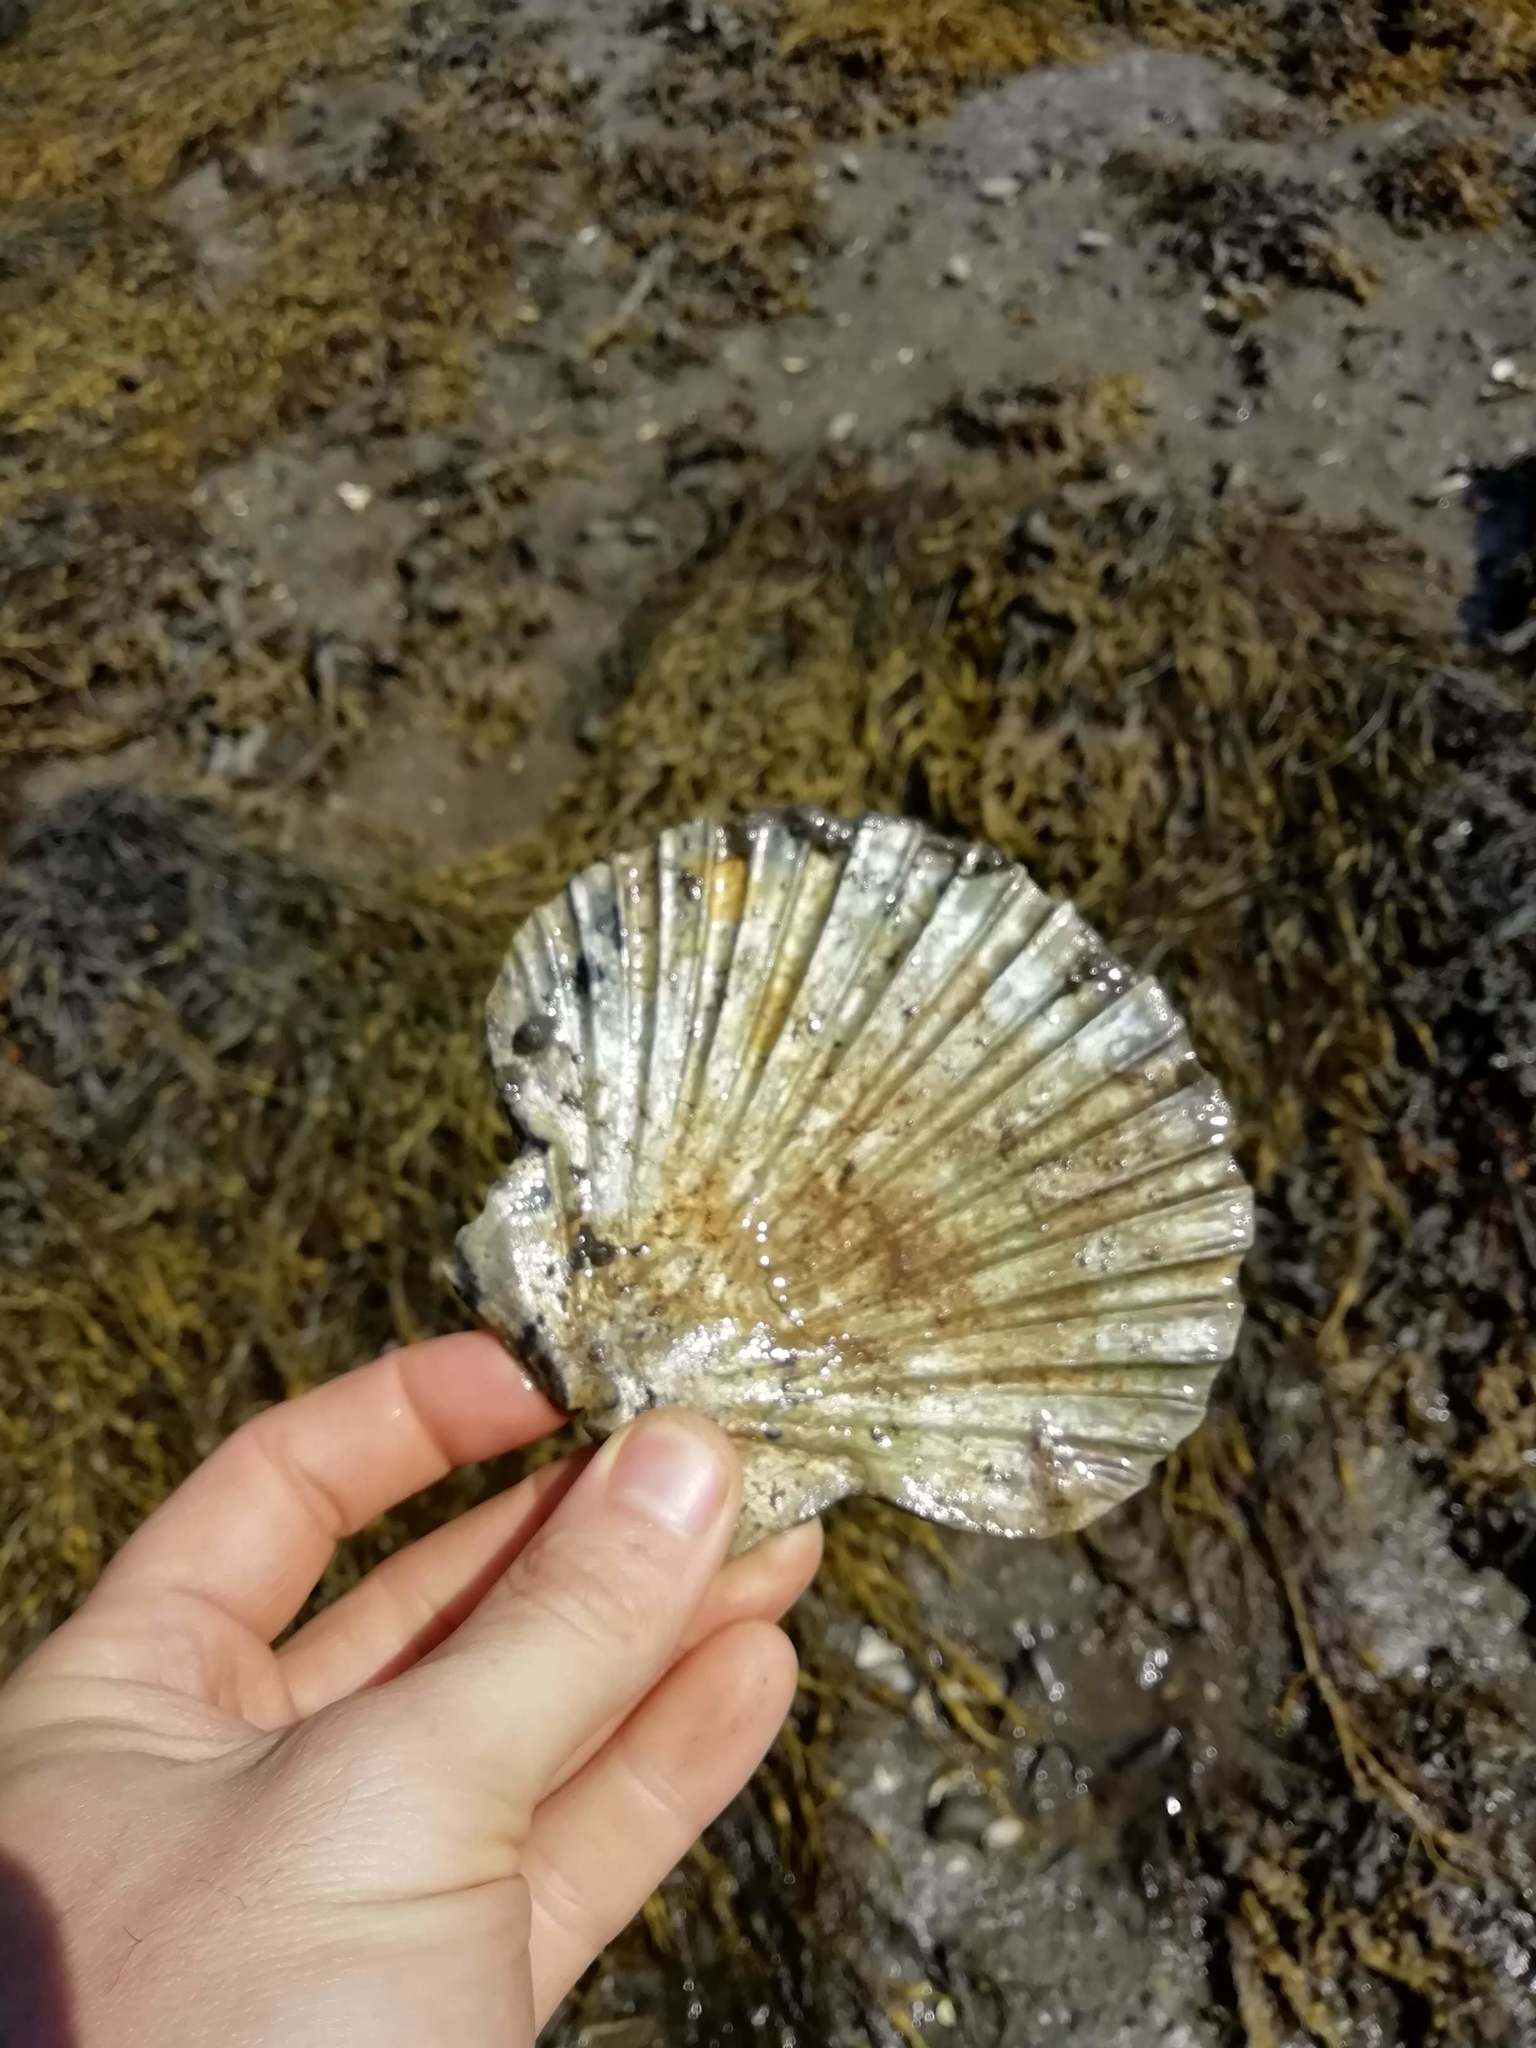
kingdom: Animalia
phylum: Mollusca
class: Bivalvia
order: Pectinida
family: Pectinidae
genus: Pecten
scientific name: Pecten maximus
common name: Great scallop
